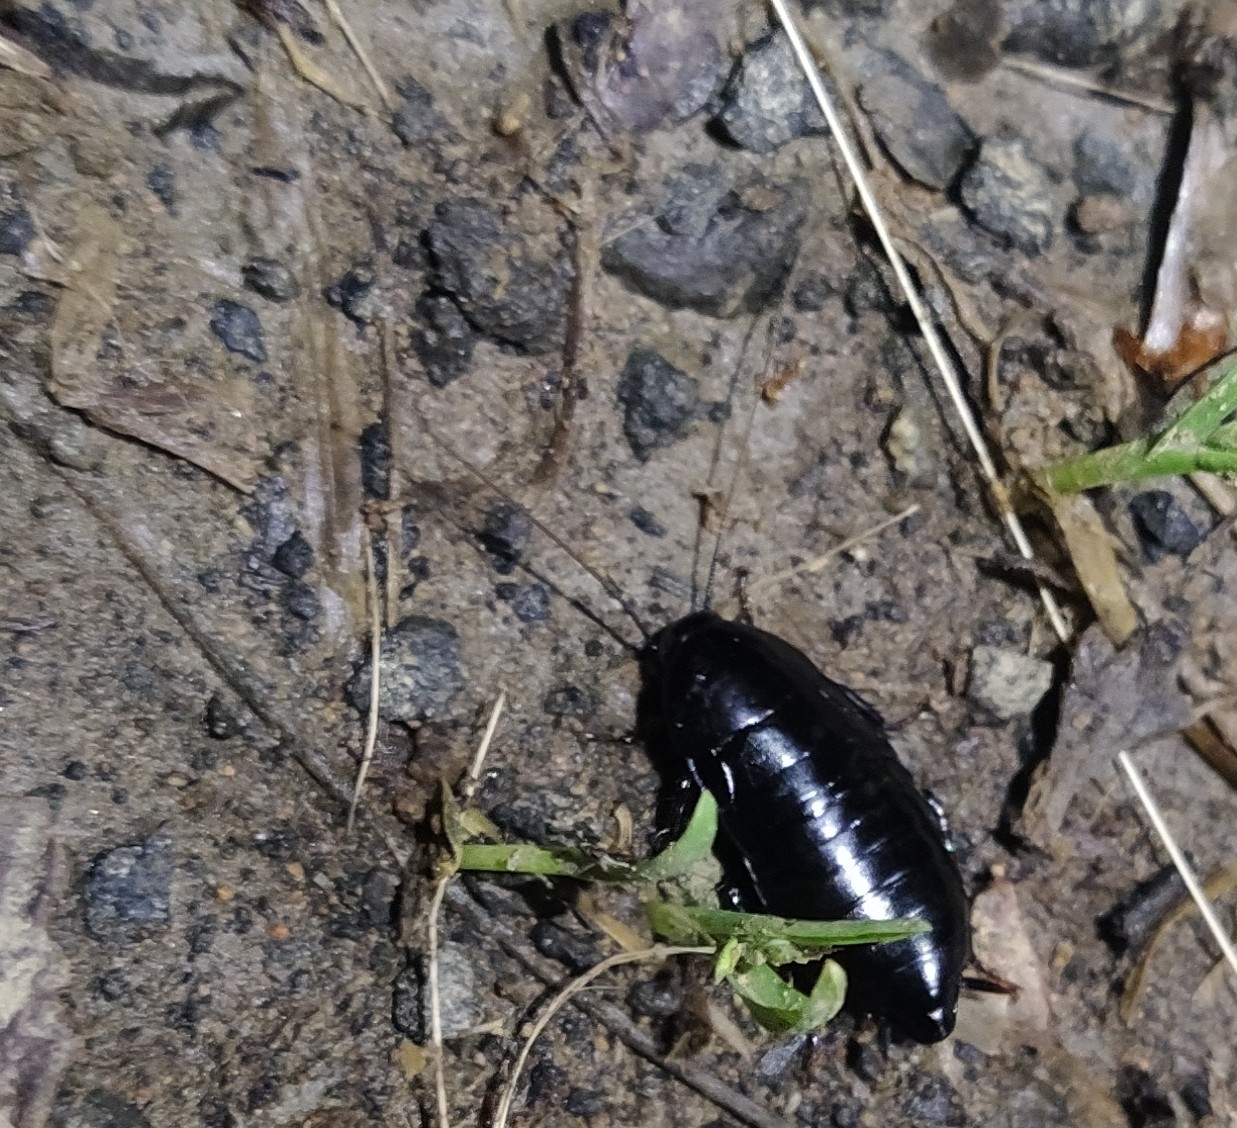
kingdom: Animalia
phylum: Arthropoda
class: Insecta
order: Blattodea
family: Blattidae
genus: Maoriblatta
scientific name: Maoriblatta novaeseelandiae
